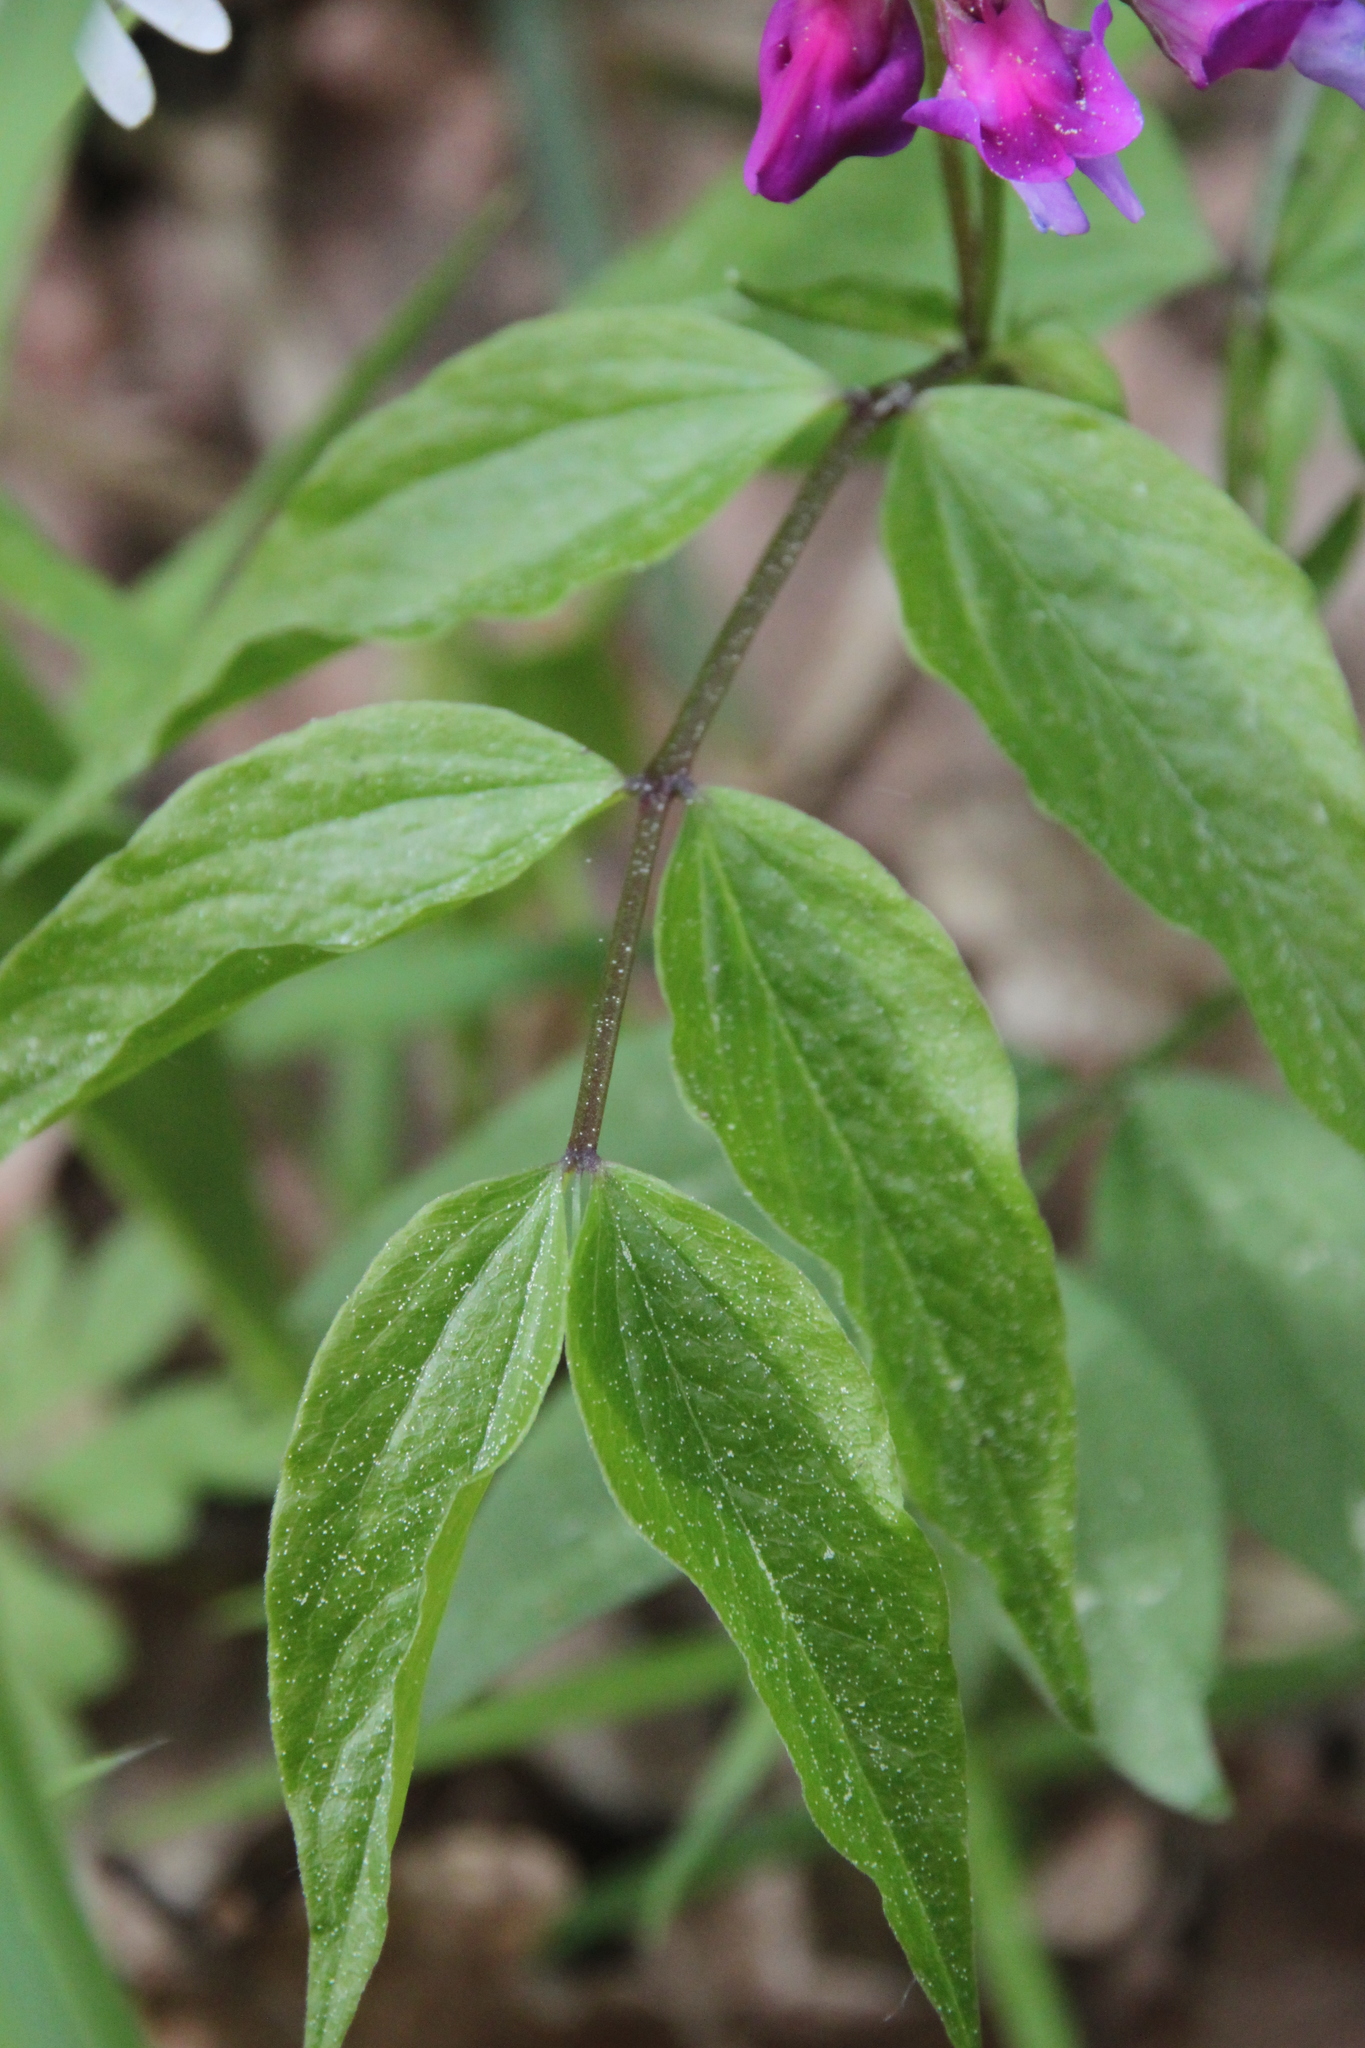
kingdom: Plantae
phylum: Tracheophyta
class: Magnoliopsida
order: Fabales
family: Fabaceae
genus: Lathyrus
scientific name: Lathyrus vernus
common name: Spring pea
